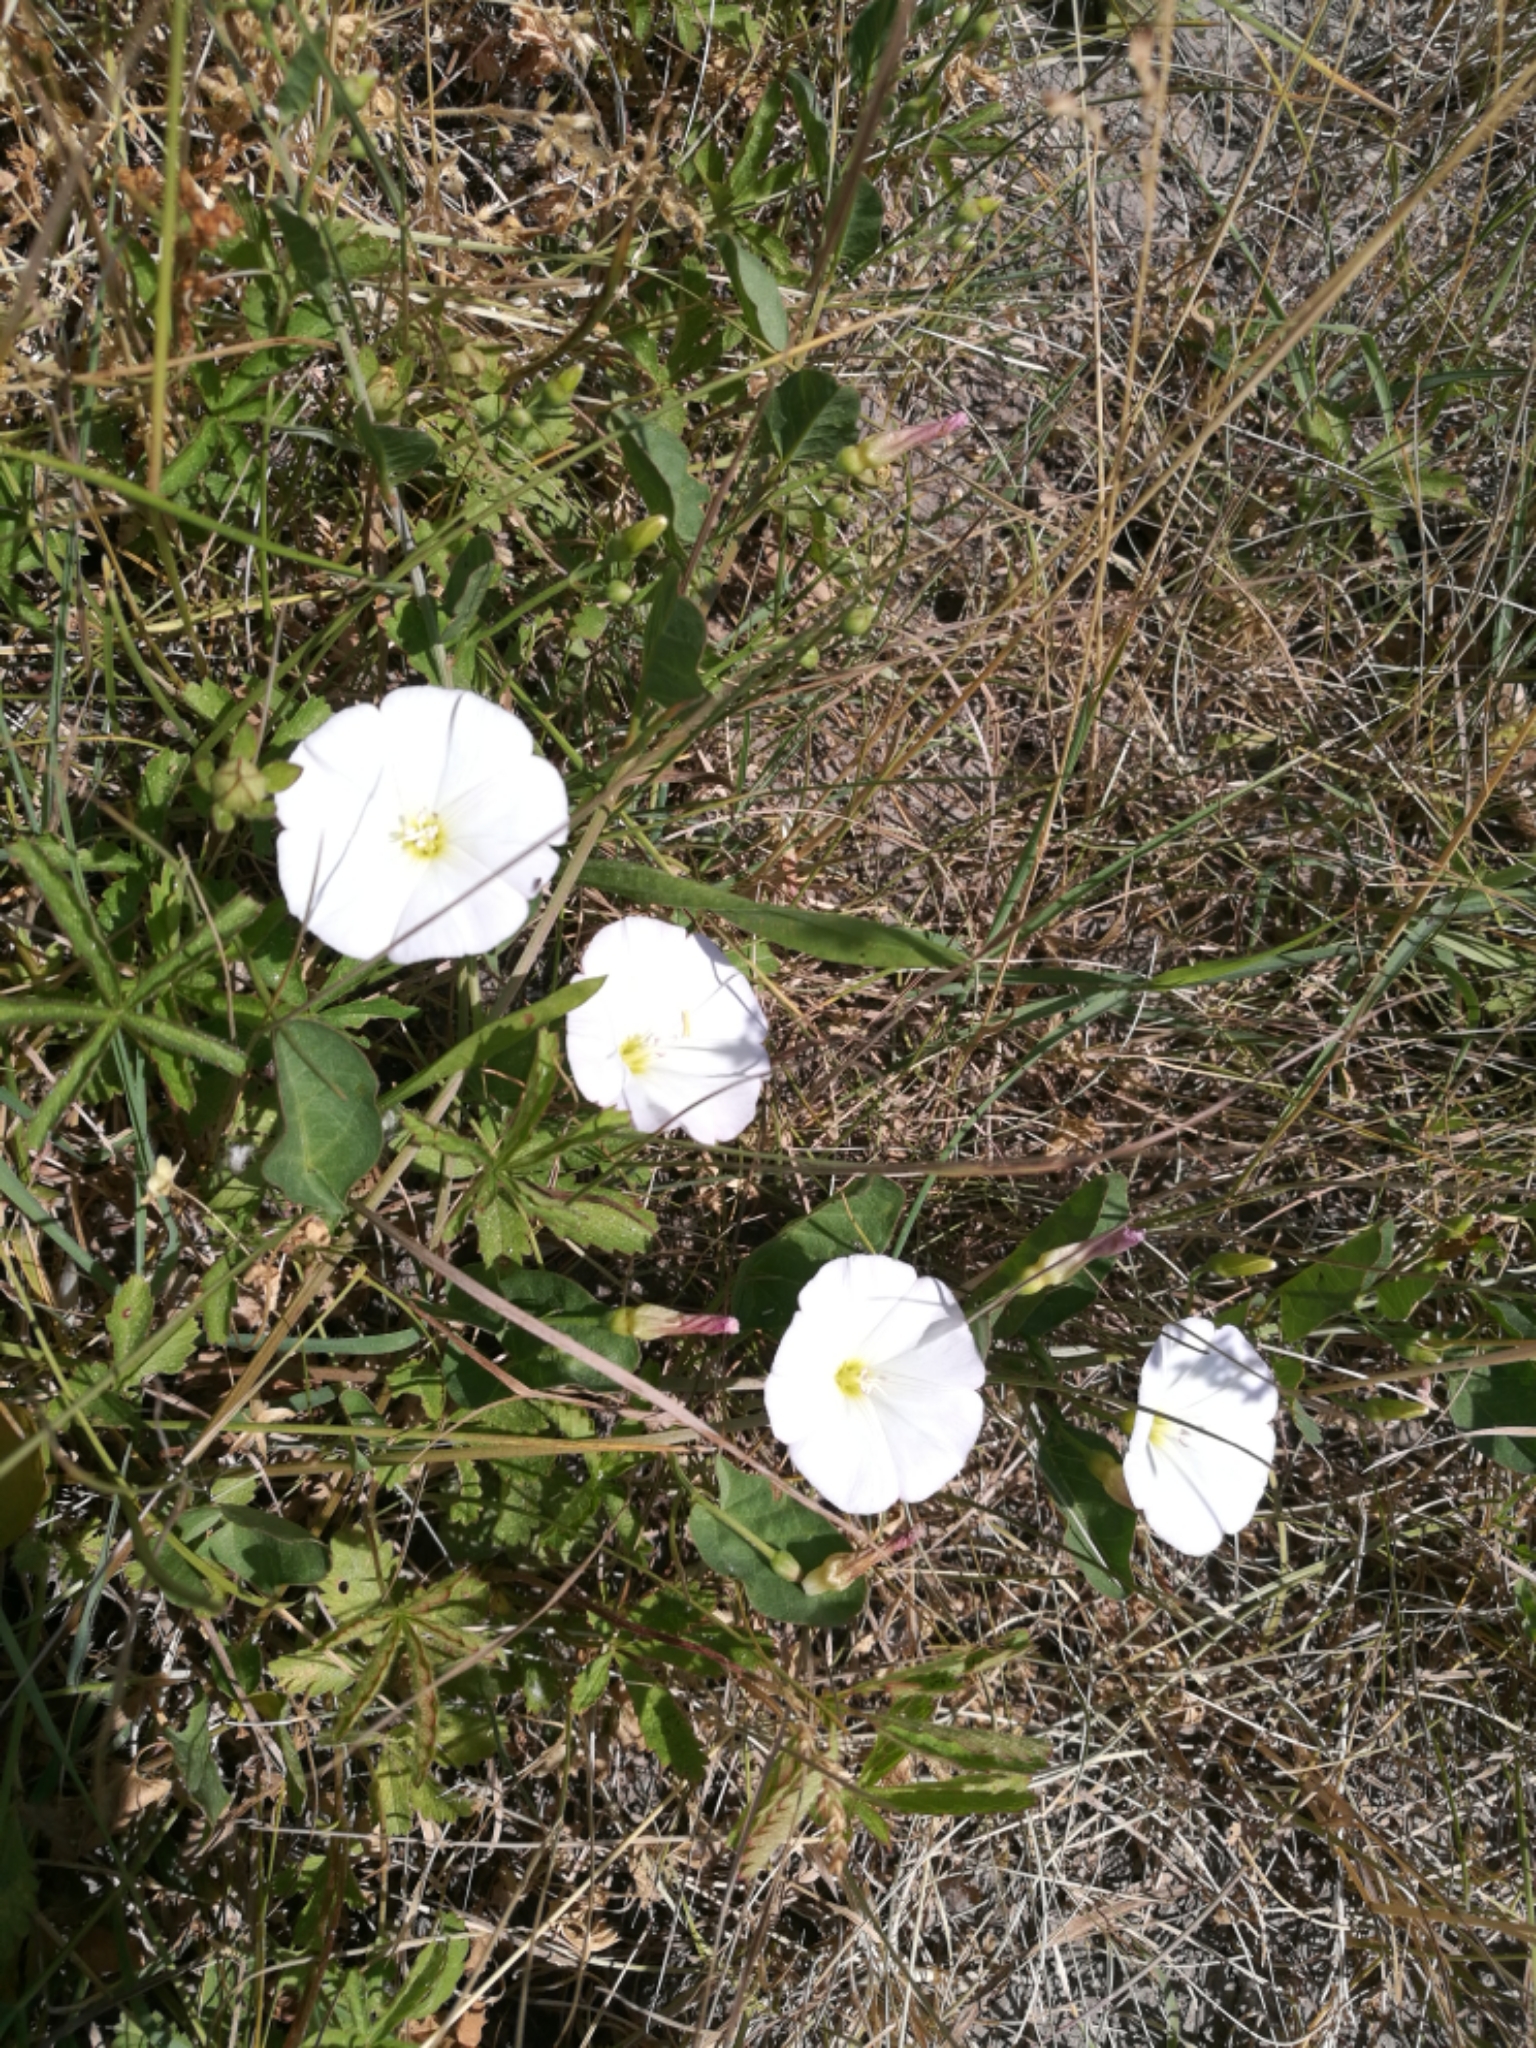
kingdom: Plantae
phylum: Tracheophyta
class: Magnoliopsida
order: Solanales
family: Convolvulaceae
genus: Convolvulus
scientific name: Convolvulus arvensis
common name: Field bindweed
